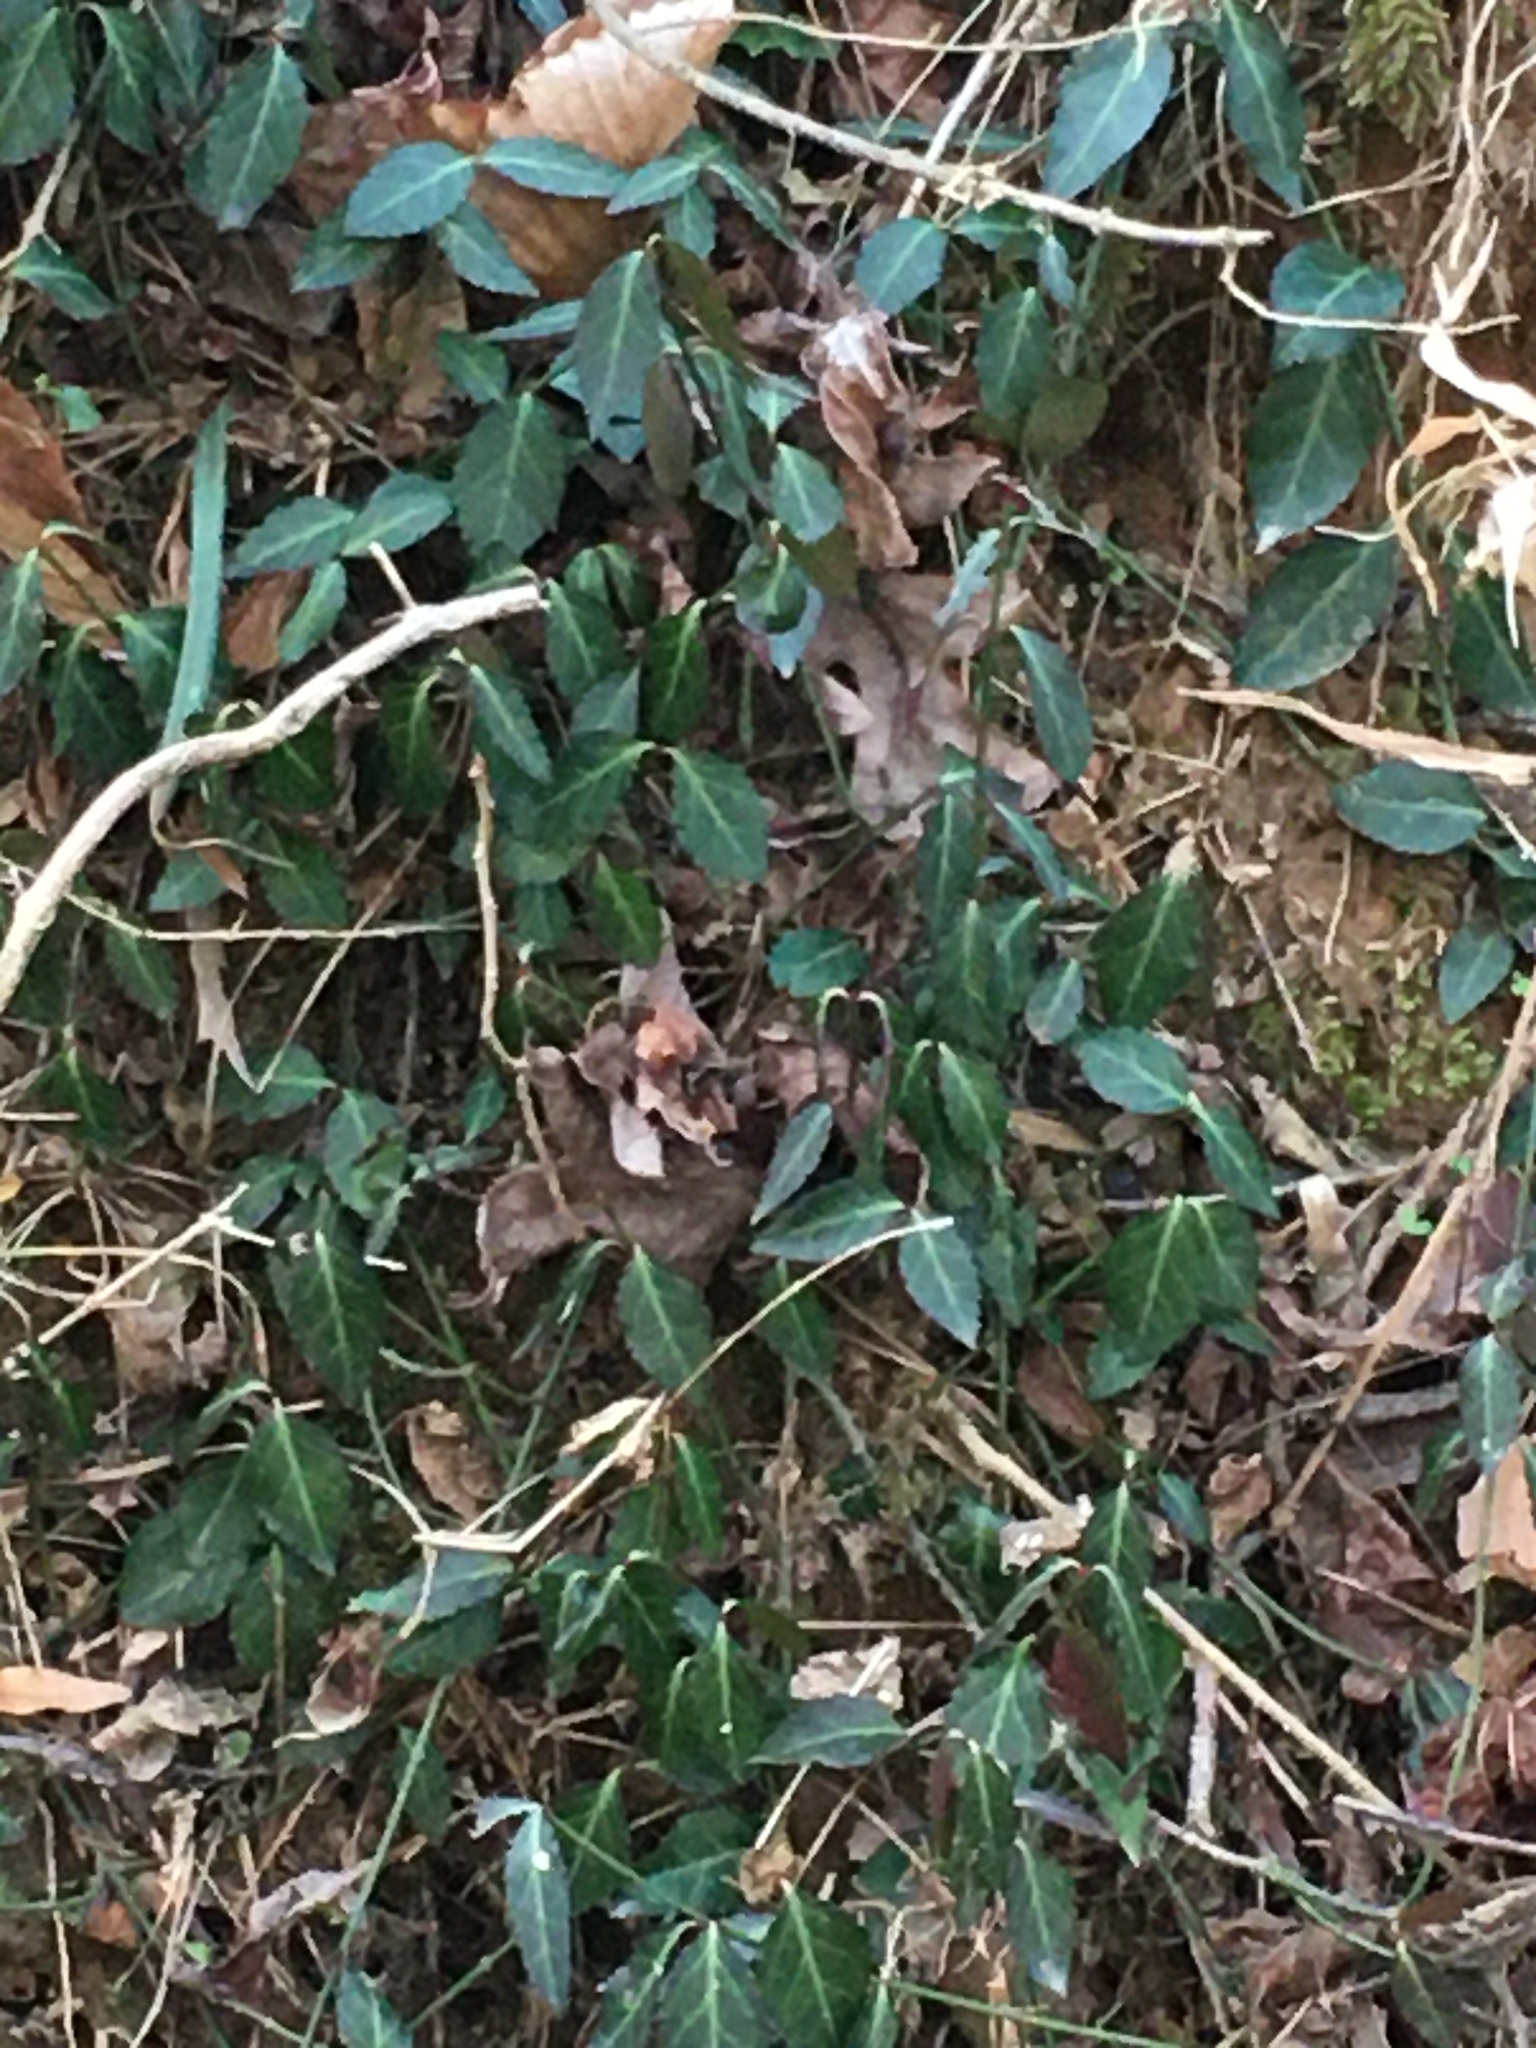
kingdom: Plantae
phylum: Tracheophyta
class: Magnoliopsida
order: Celastrales
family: Celastraceae
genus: Euonymus
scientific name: Euonymus fortunei
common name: Climbing euonymus
